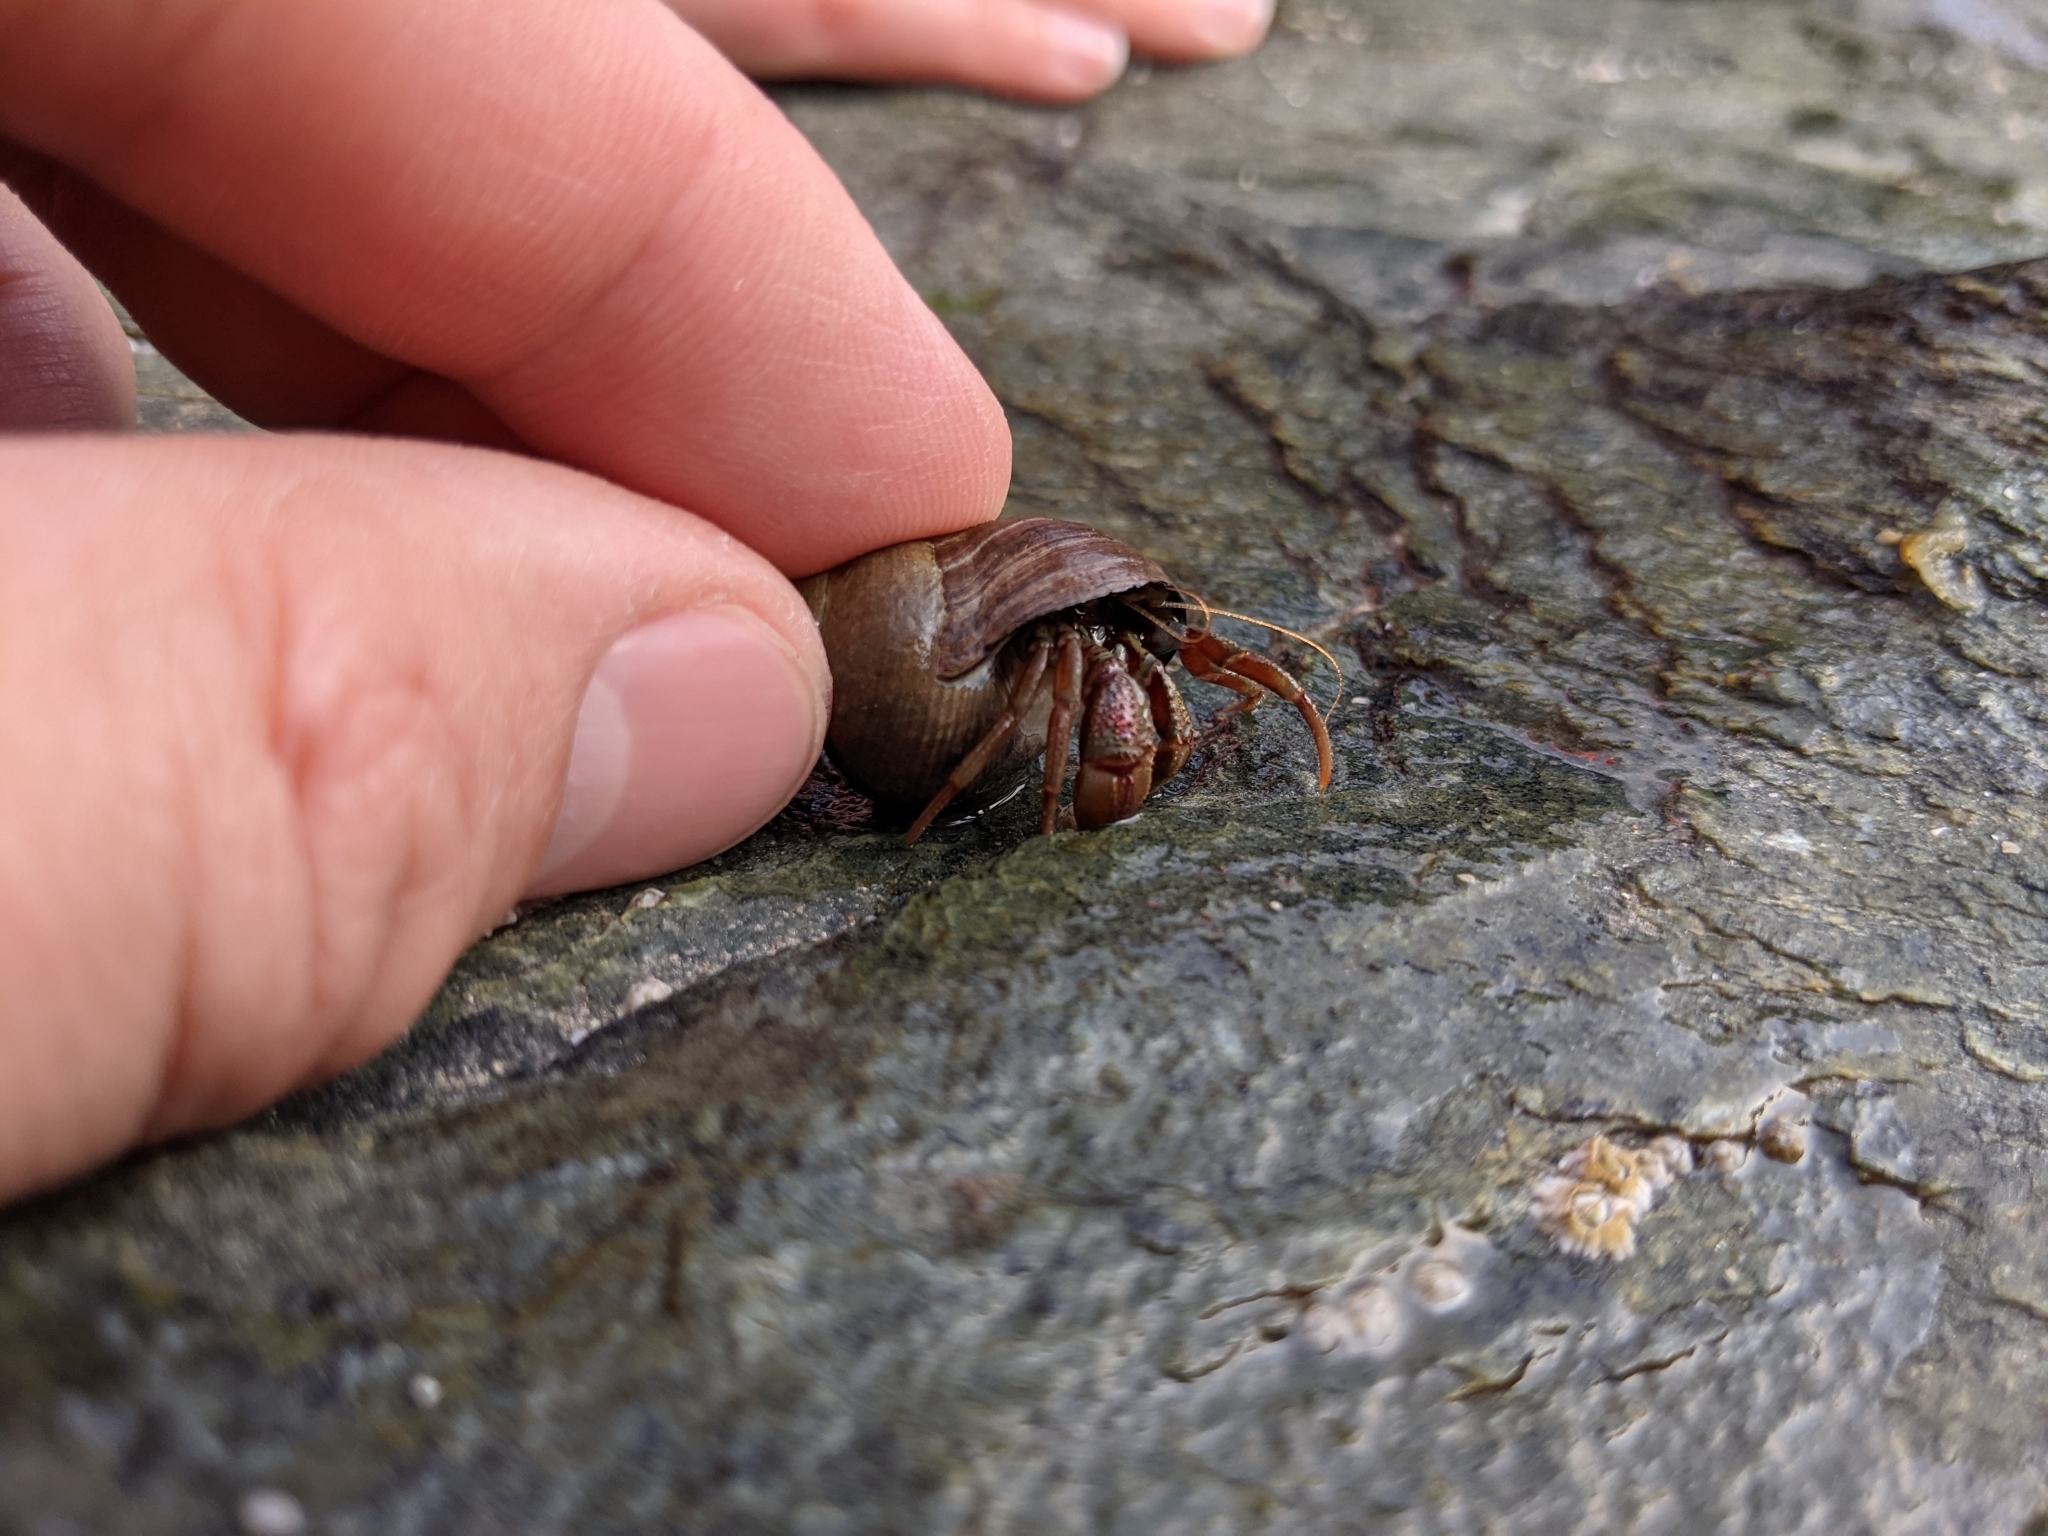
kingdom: Animalia
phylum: Arthropoda
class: Malacostraca
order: Decapoda
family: Paguridae
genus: Pagurus
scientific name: Pagurus bernhardus
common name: Hermit crab
